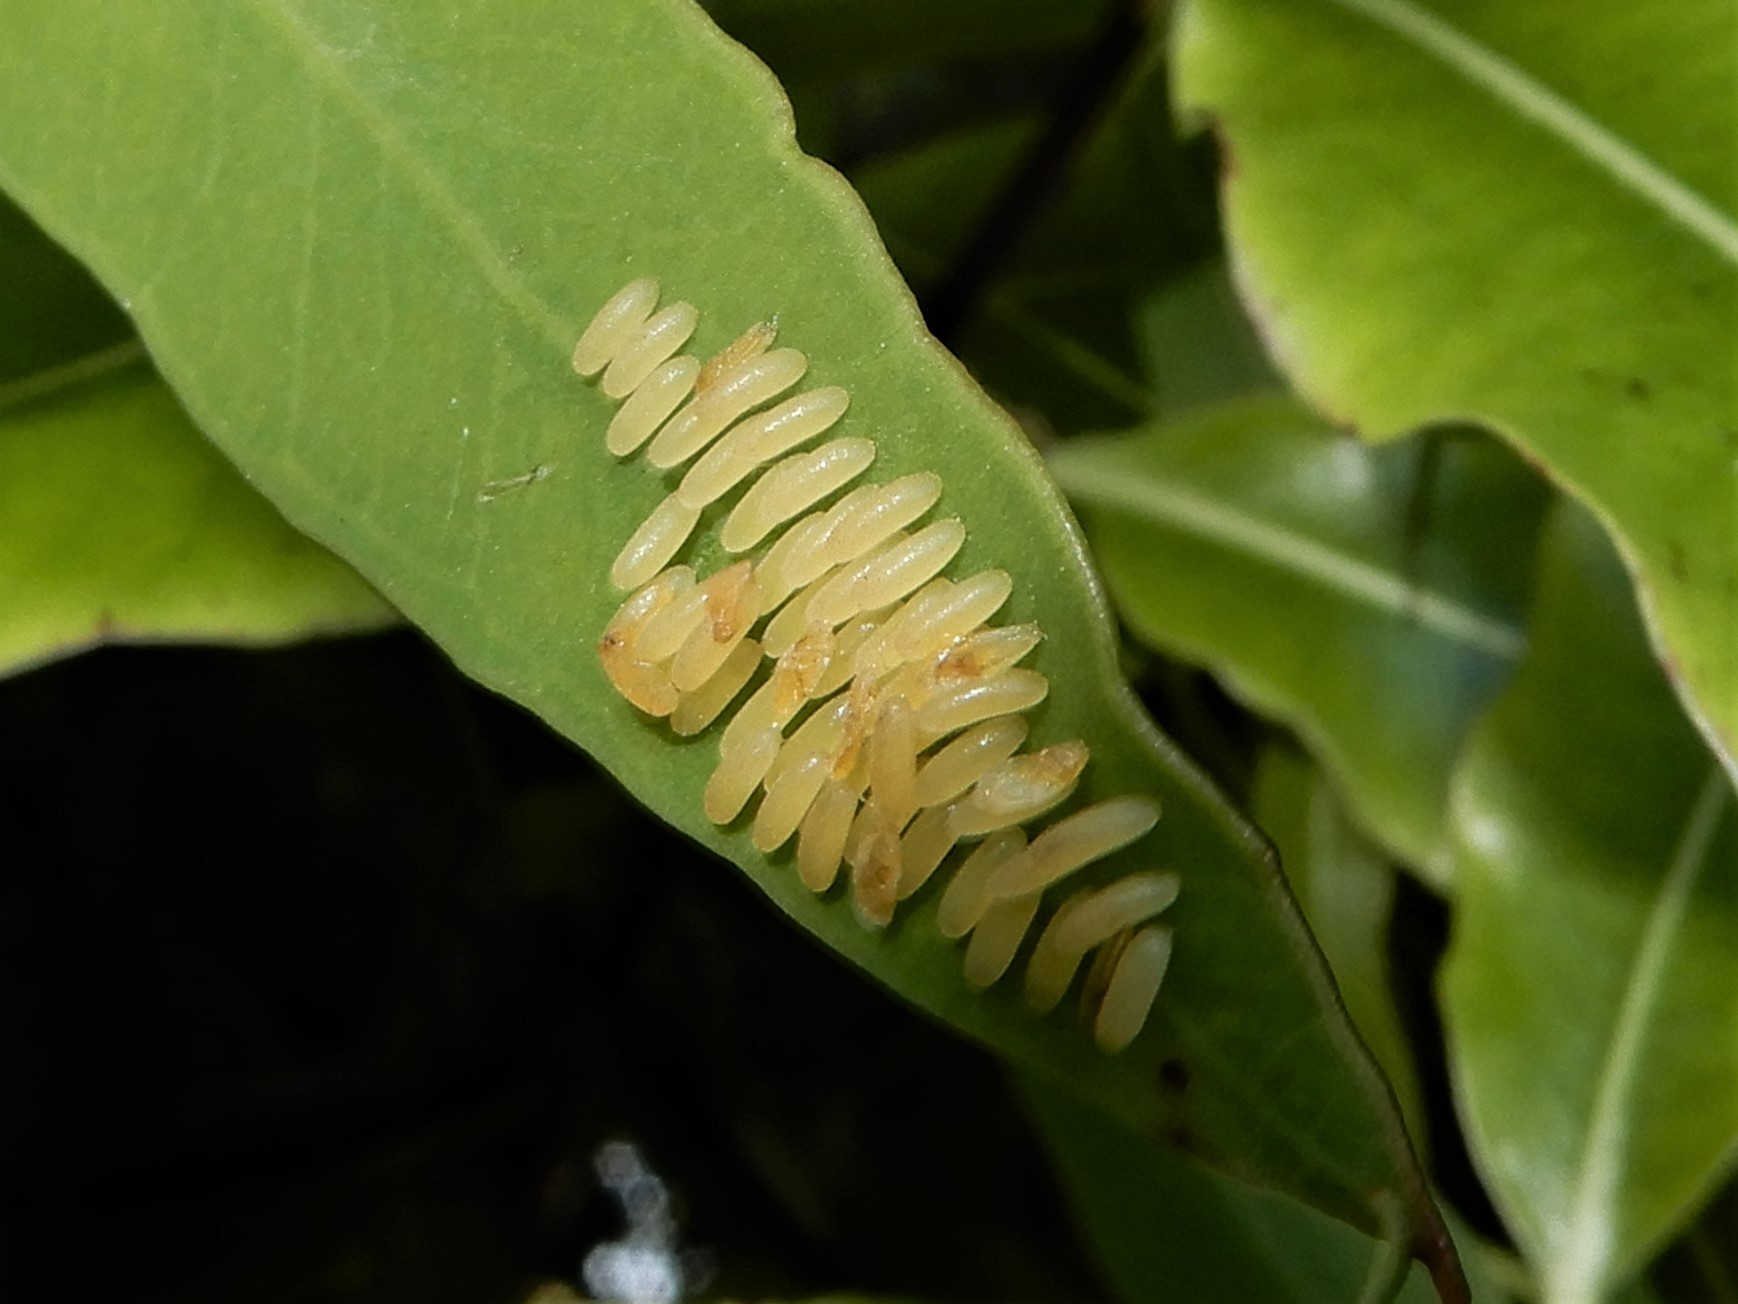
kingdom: Animalia
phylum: Arthropoda
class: Insecta
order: Coleoptera
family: Chrysomelidae
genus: Paropsisterna
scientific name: Paropsisterna cloelia
